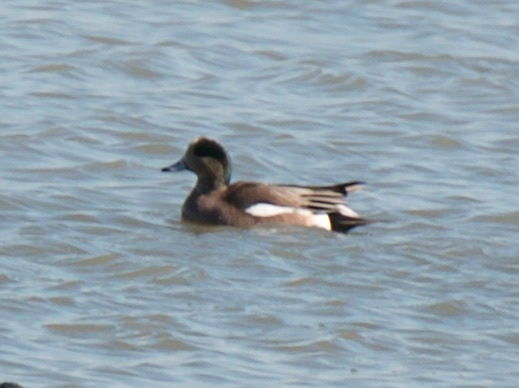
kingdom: Animalia
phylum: Chordata
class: Aves
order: Anseriformes
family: Anatidae
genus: Mareca
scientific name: Mareca americana
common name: American wigeon
